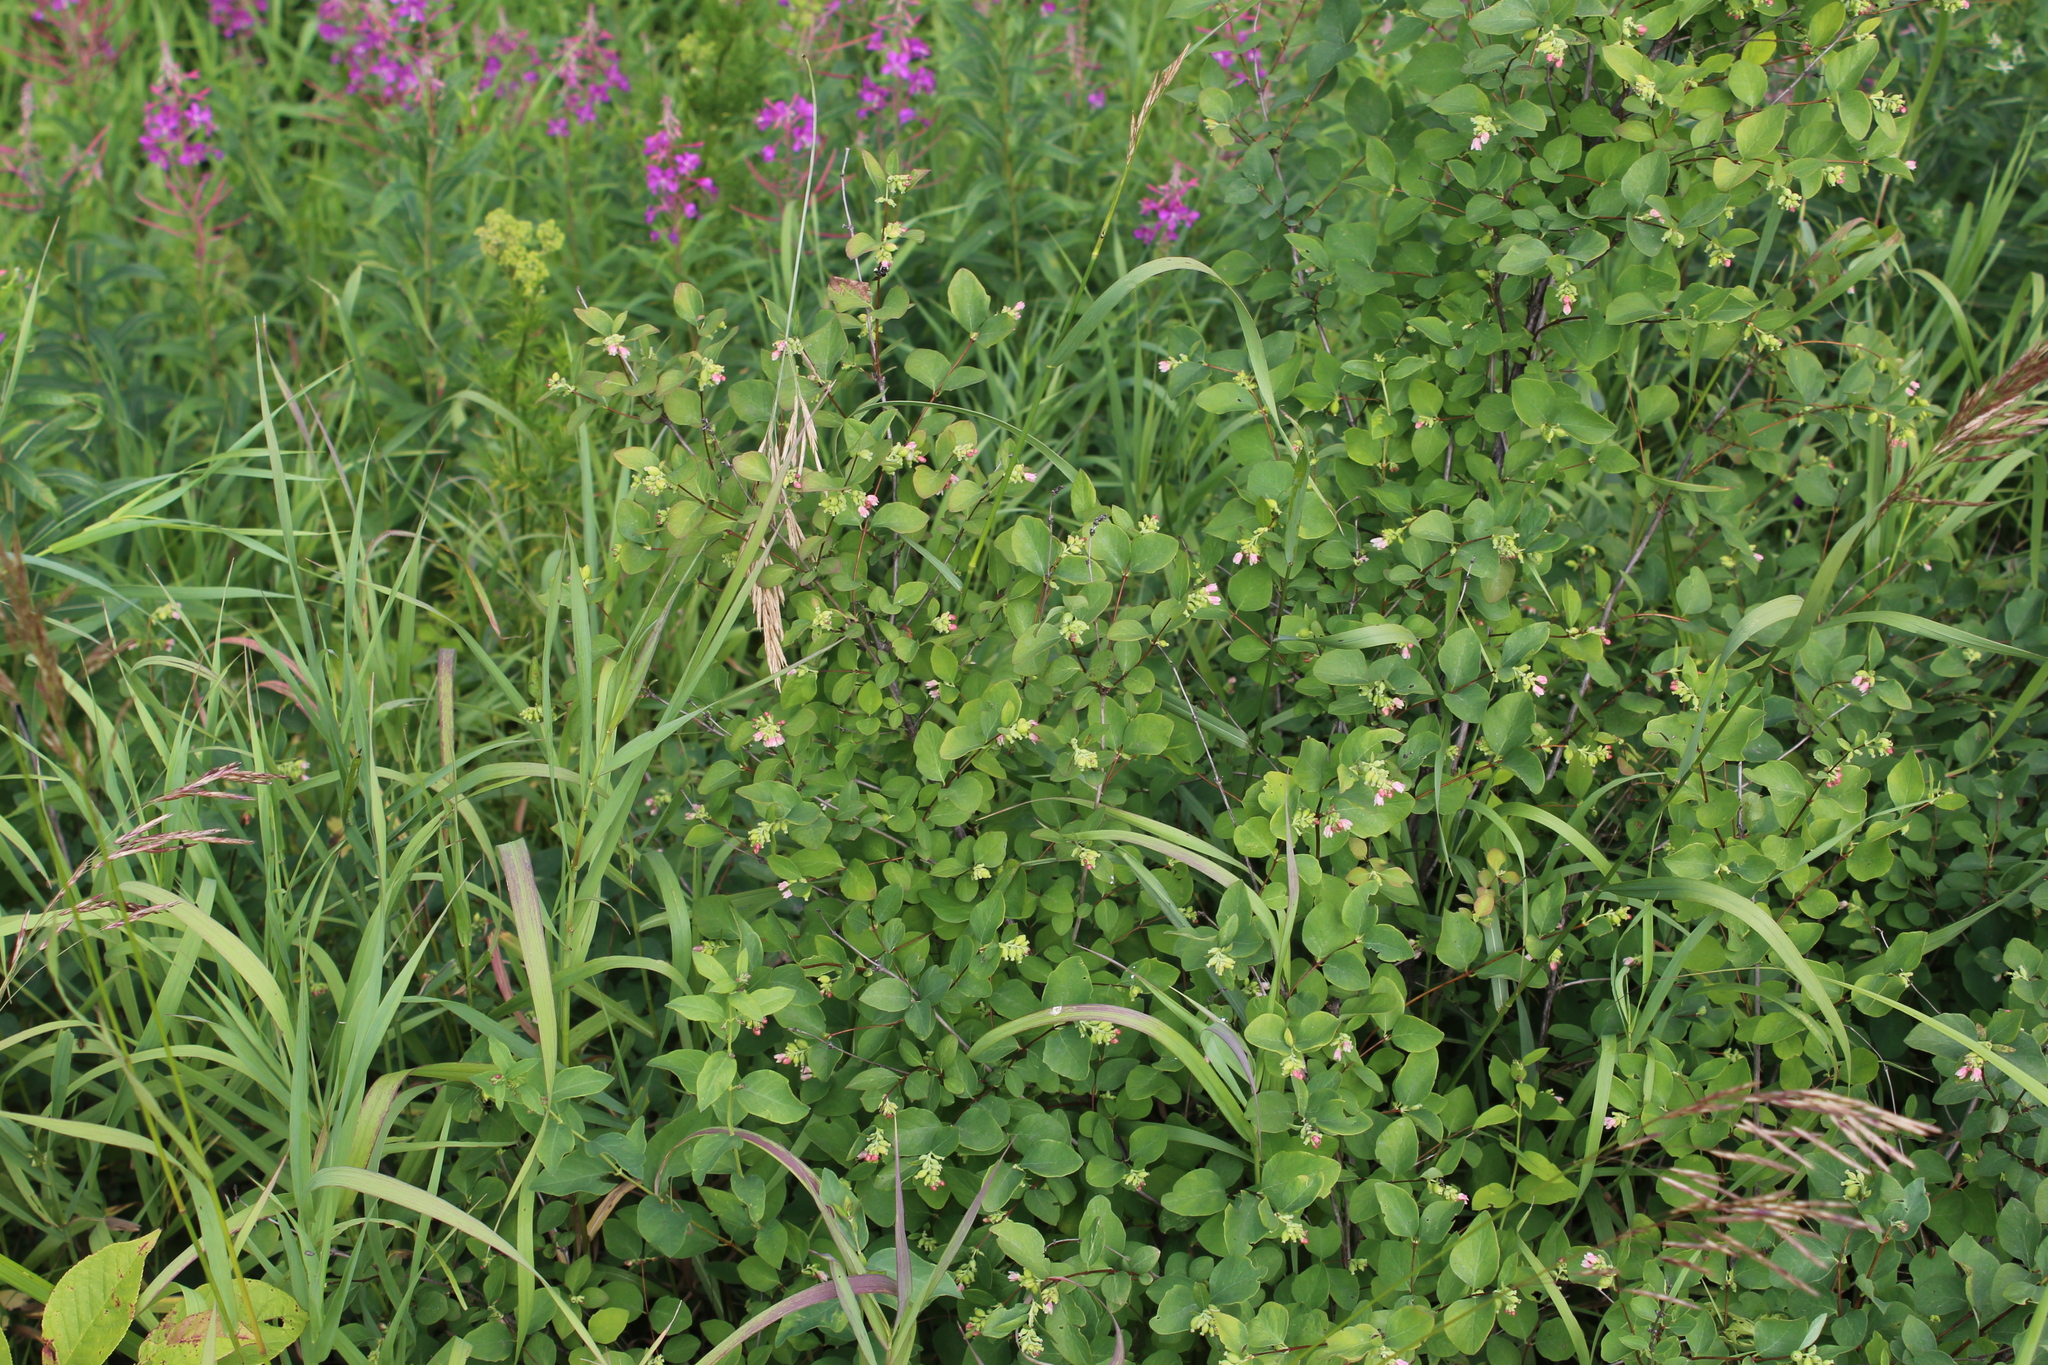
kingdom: Plantae
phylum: Tracheophyta
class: Magnoliopsida
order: Dipsacales
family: Caprifoliaceae
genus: Symphoricarpos
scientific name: Symphoricarpos albus
